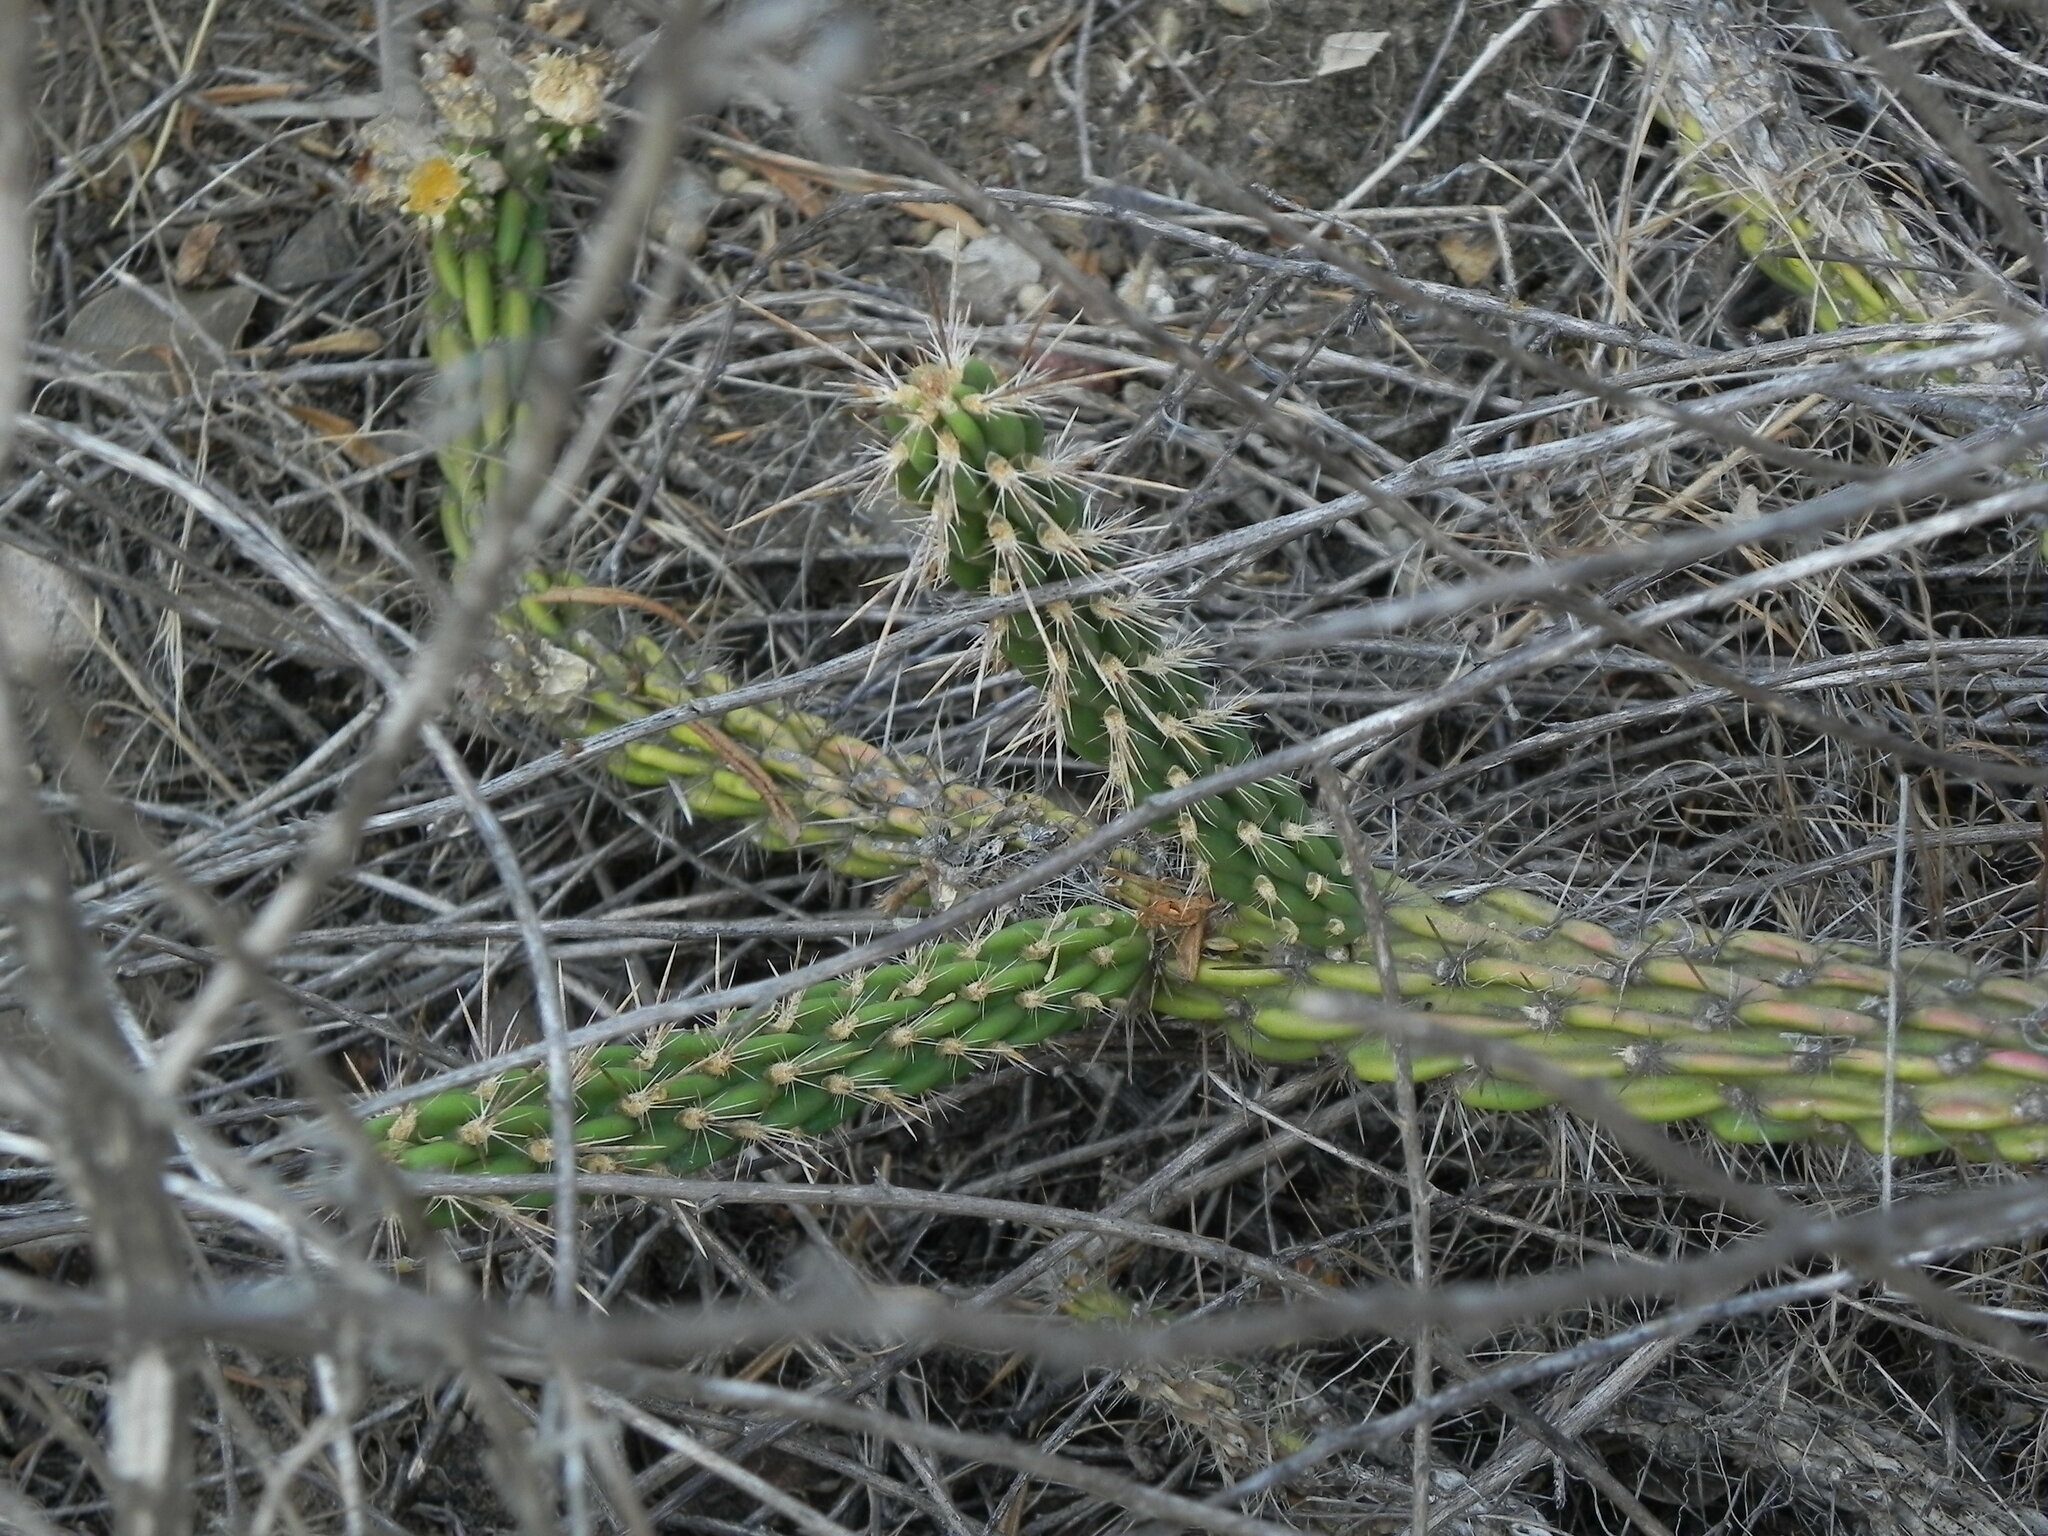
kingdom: Plantae
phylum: Tracheophyta
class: Magnoliopsida
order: Caryophyllales
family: Cactaceae
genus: Cylindropuntia
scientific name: Cylindropuntia californica
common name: Snake cholla
